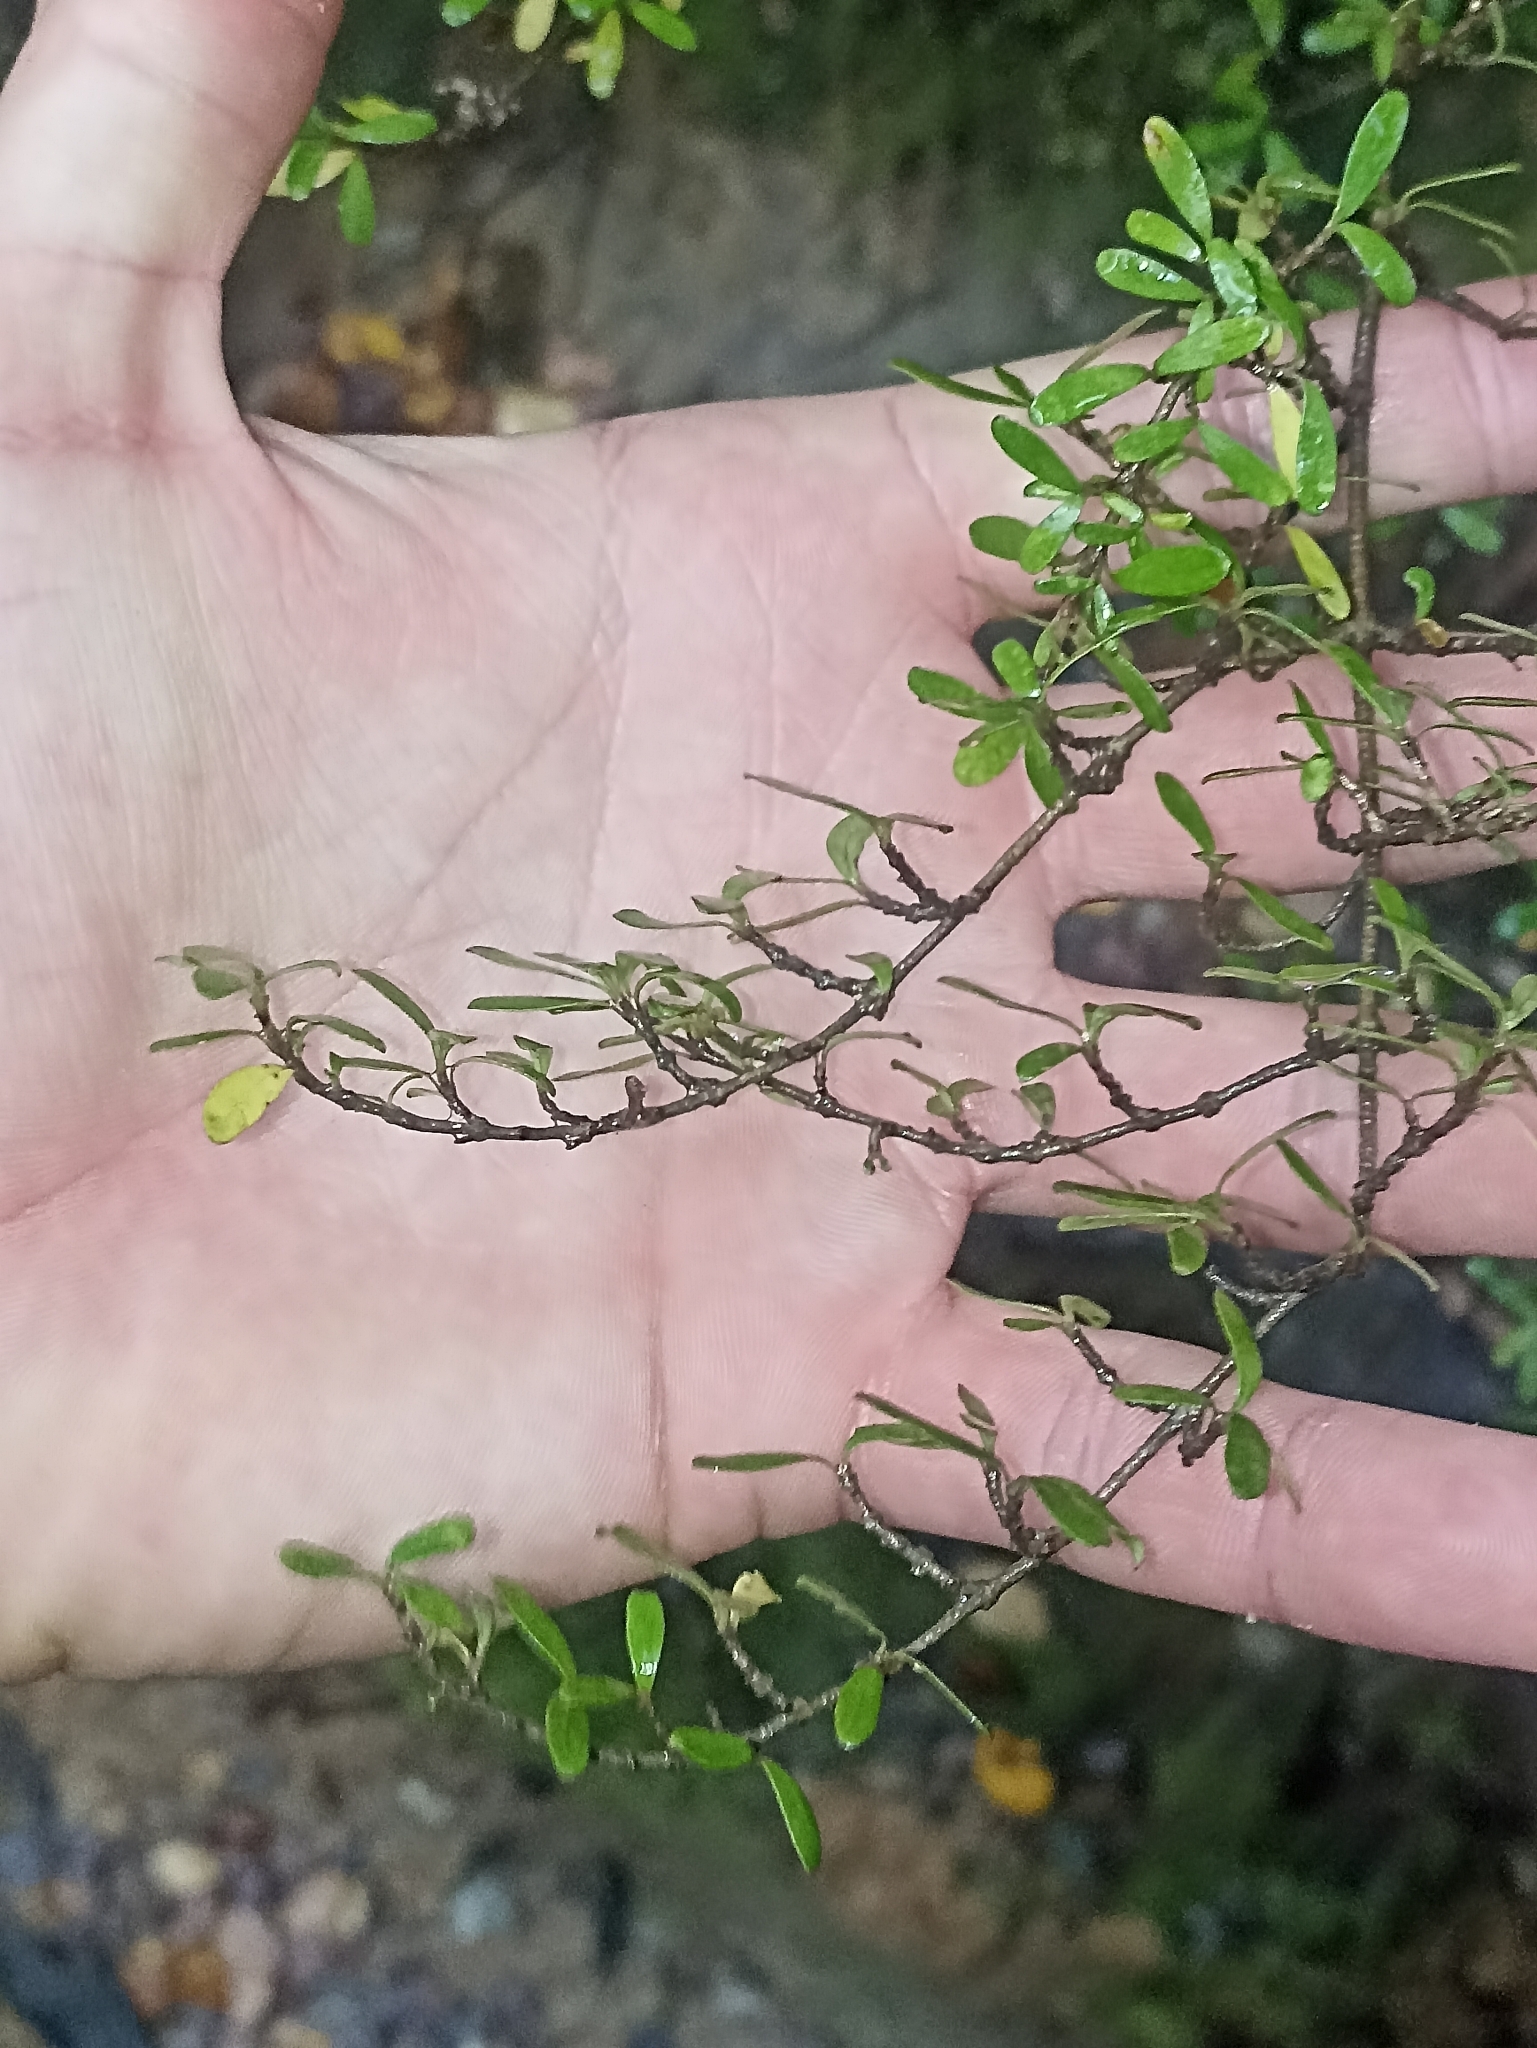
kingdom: Plantae
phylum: Tracheophyta
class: Magnoliopsida
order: Gentianales
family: Rubiaceae
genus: Coprosma
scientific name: Coprosma propinqua
